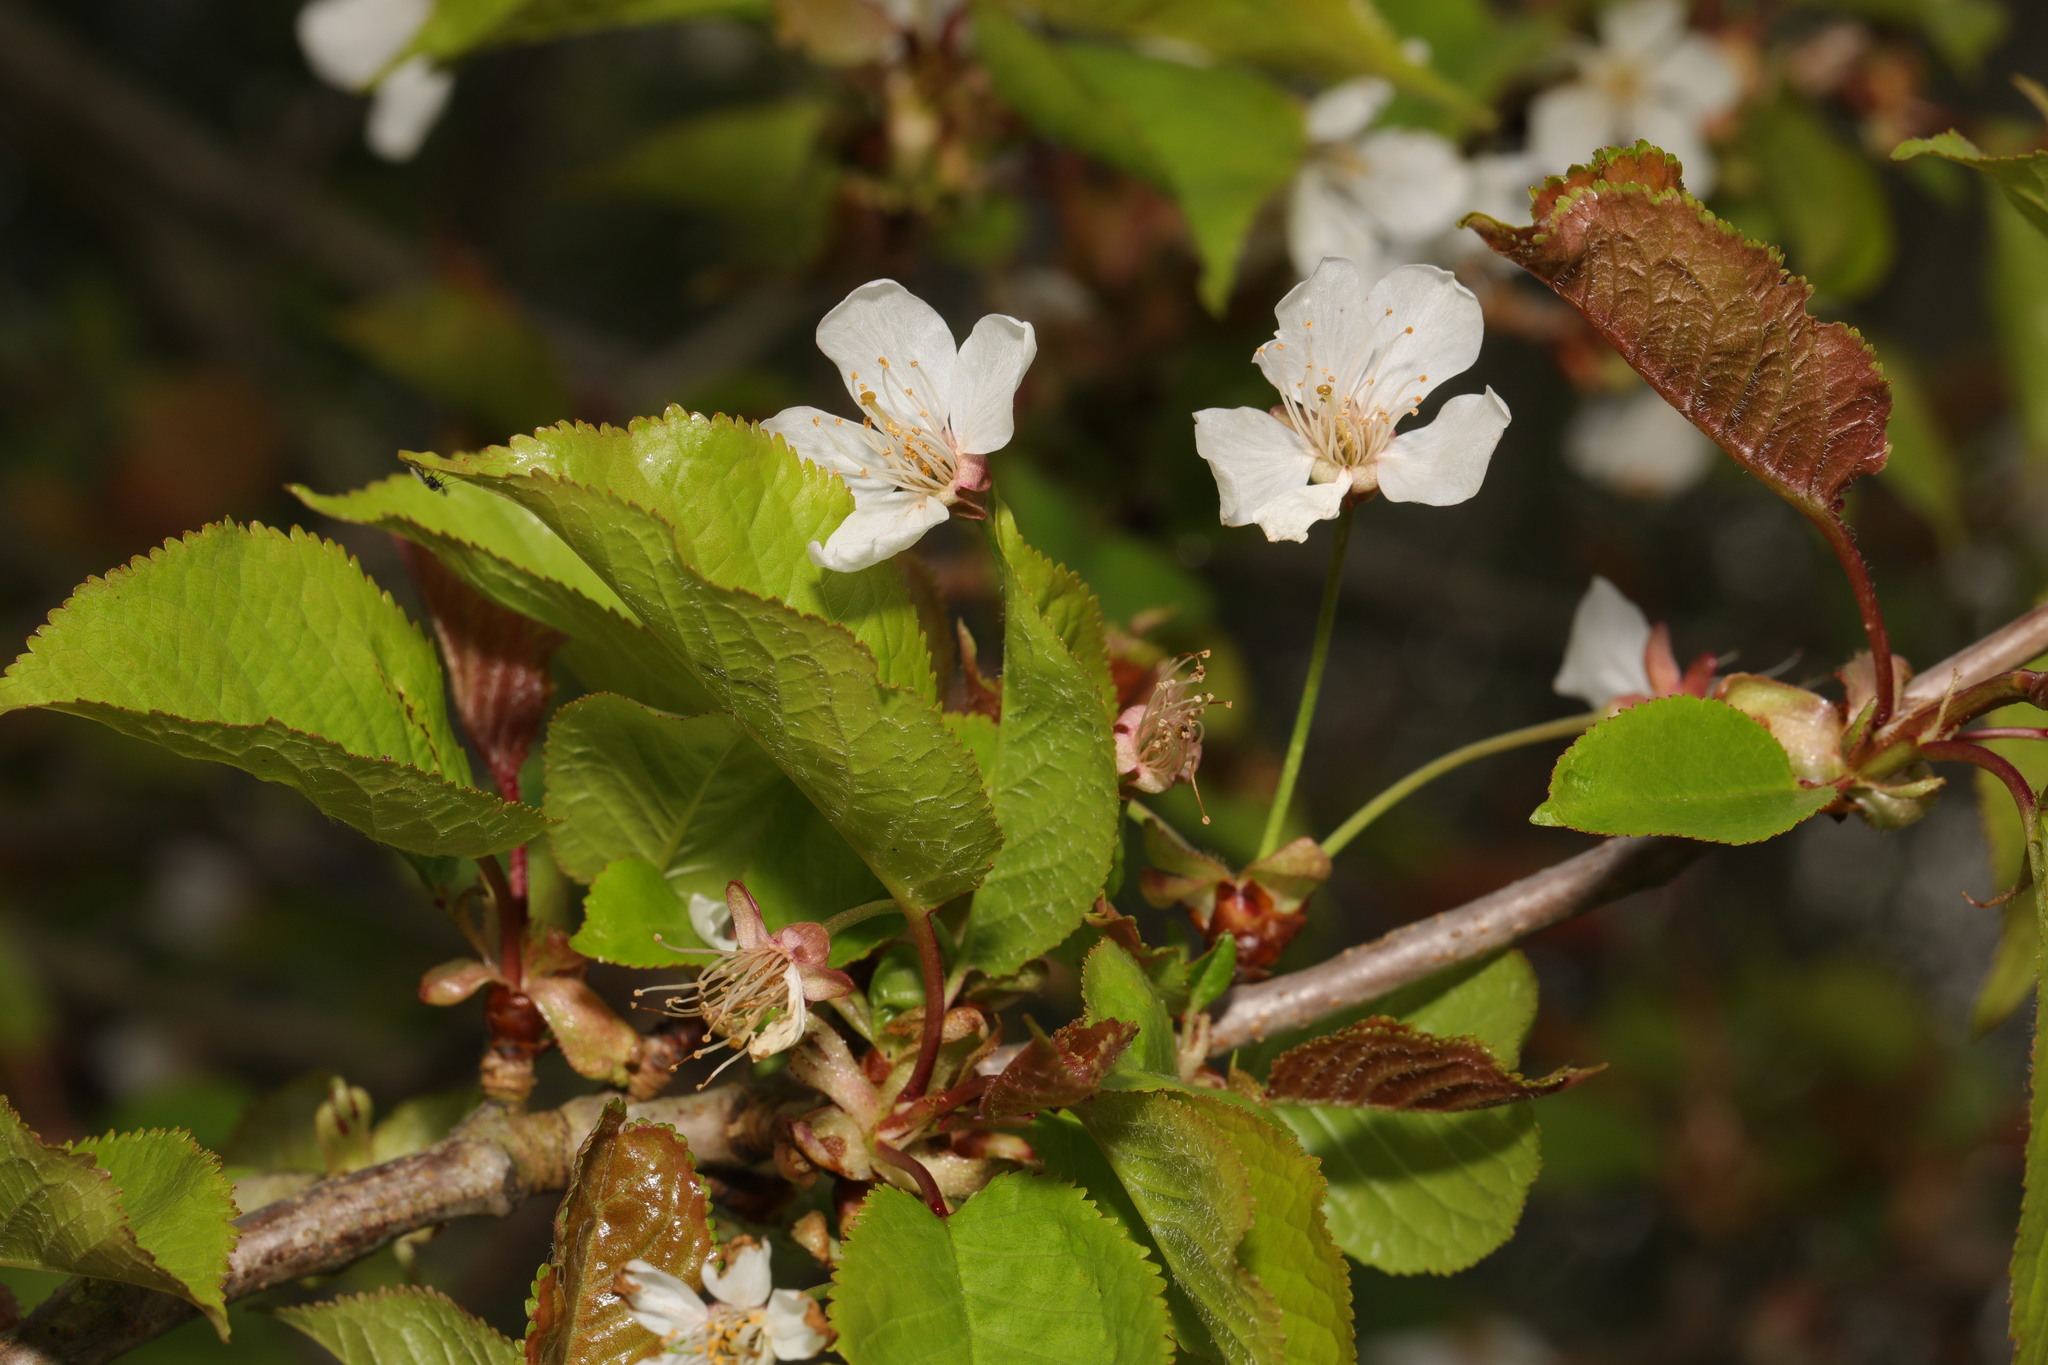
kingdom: Plantae
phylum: Tracheophyta
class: Magnoliopsida
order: Rosales
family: Rosaceae
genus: Prunus
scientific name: Prunus avium
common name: Sweet cherry
